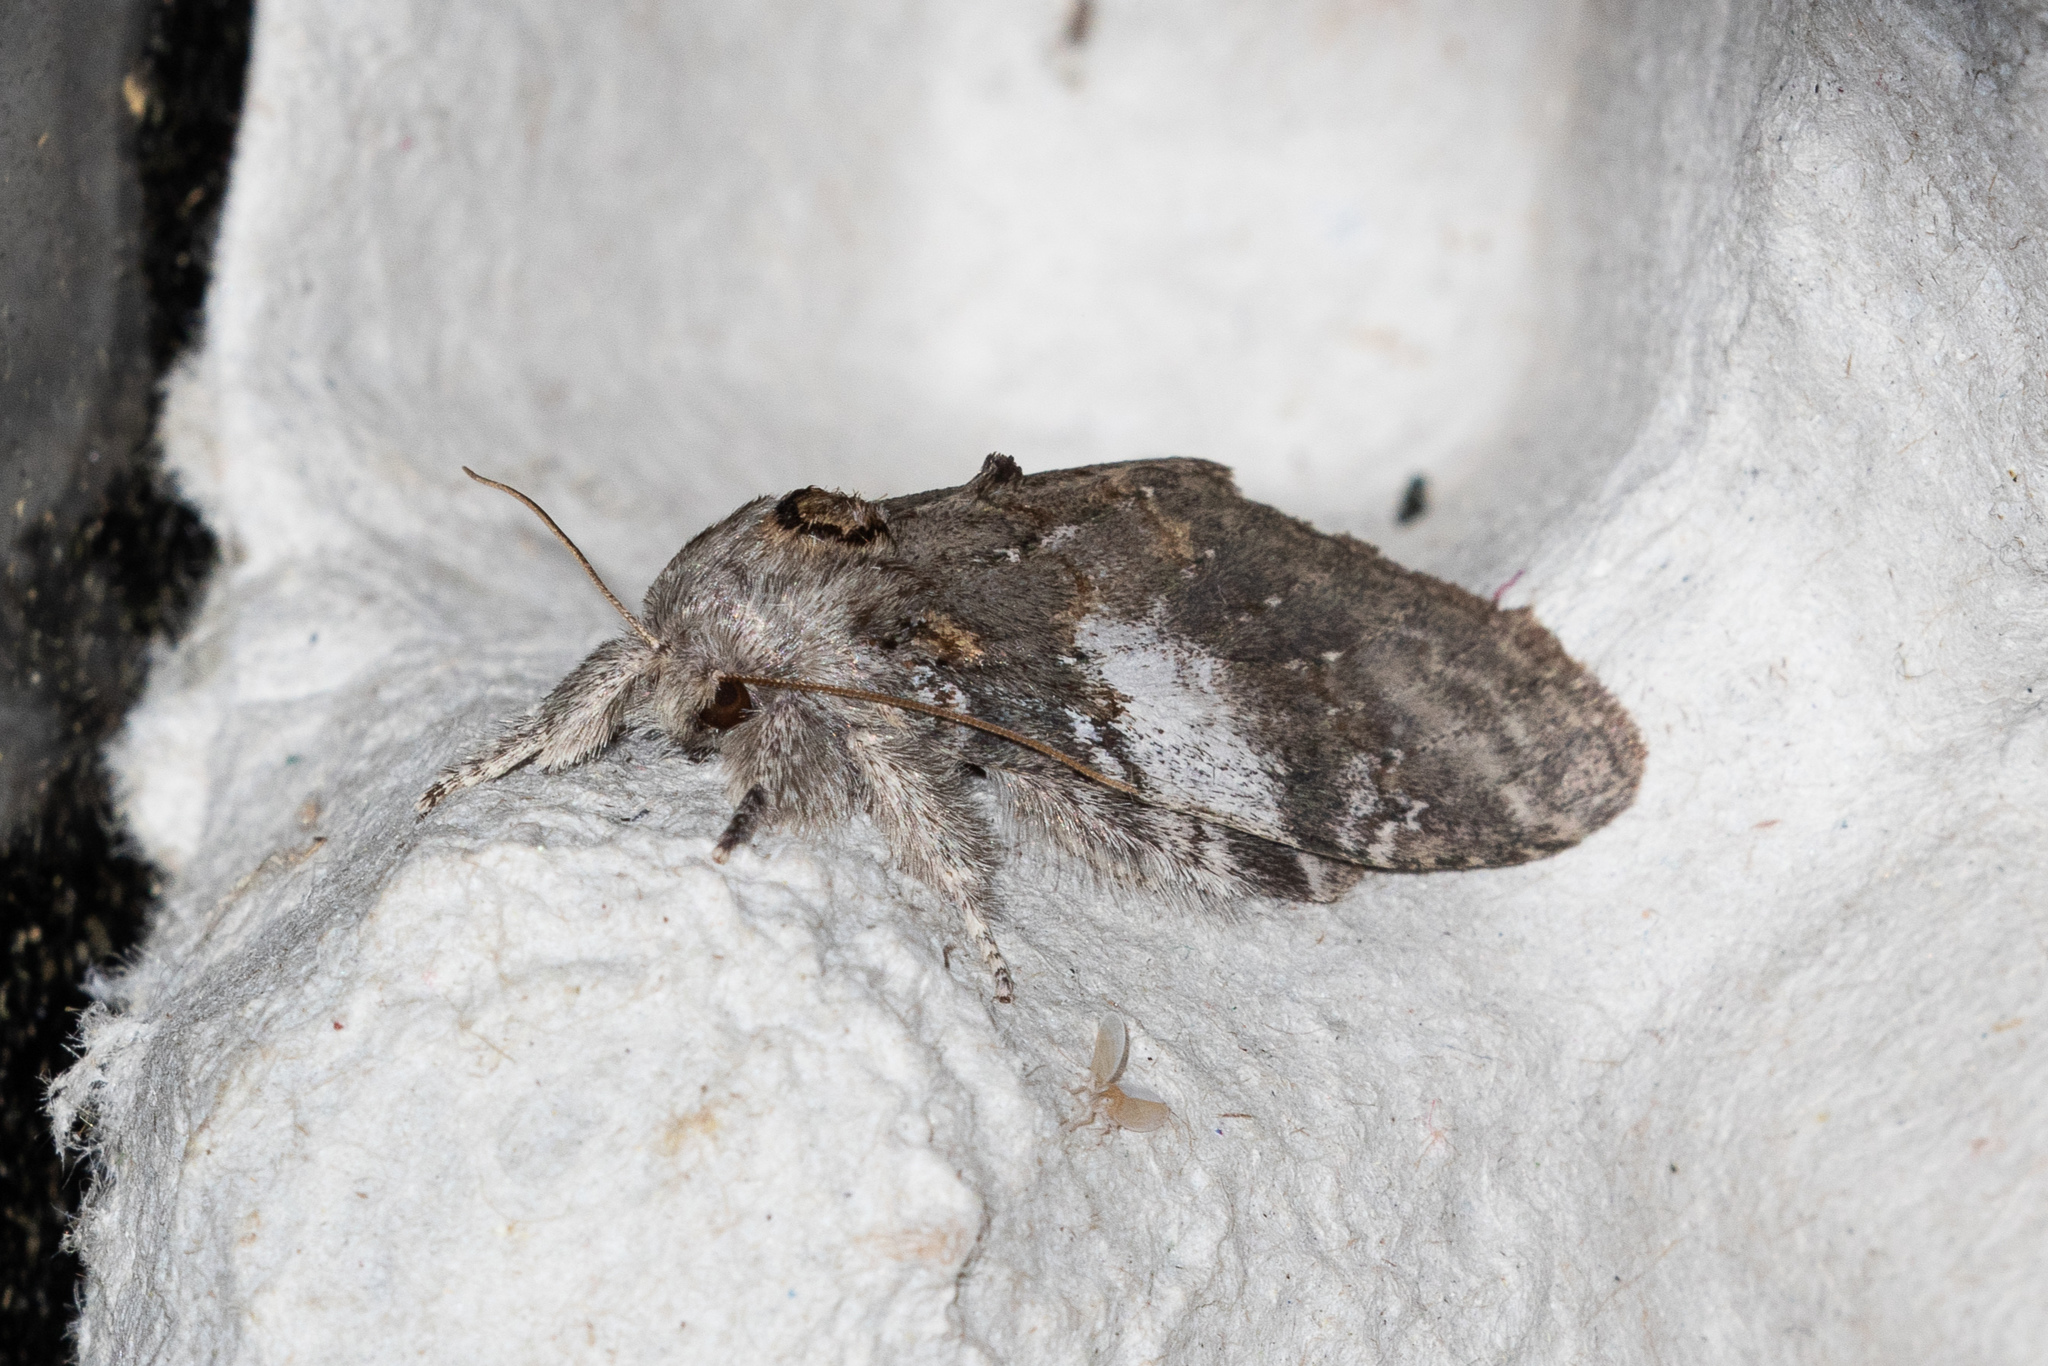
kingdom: Animalia
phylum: Arthropoda
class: Insecta
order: Lepidoptera
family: Notodontidae
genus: Peridea
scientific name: Peridea angulosa
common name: Angulose prominent
